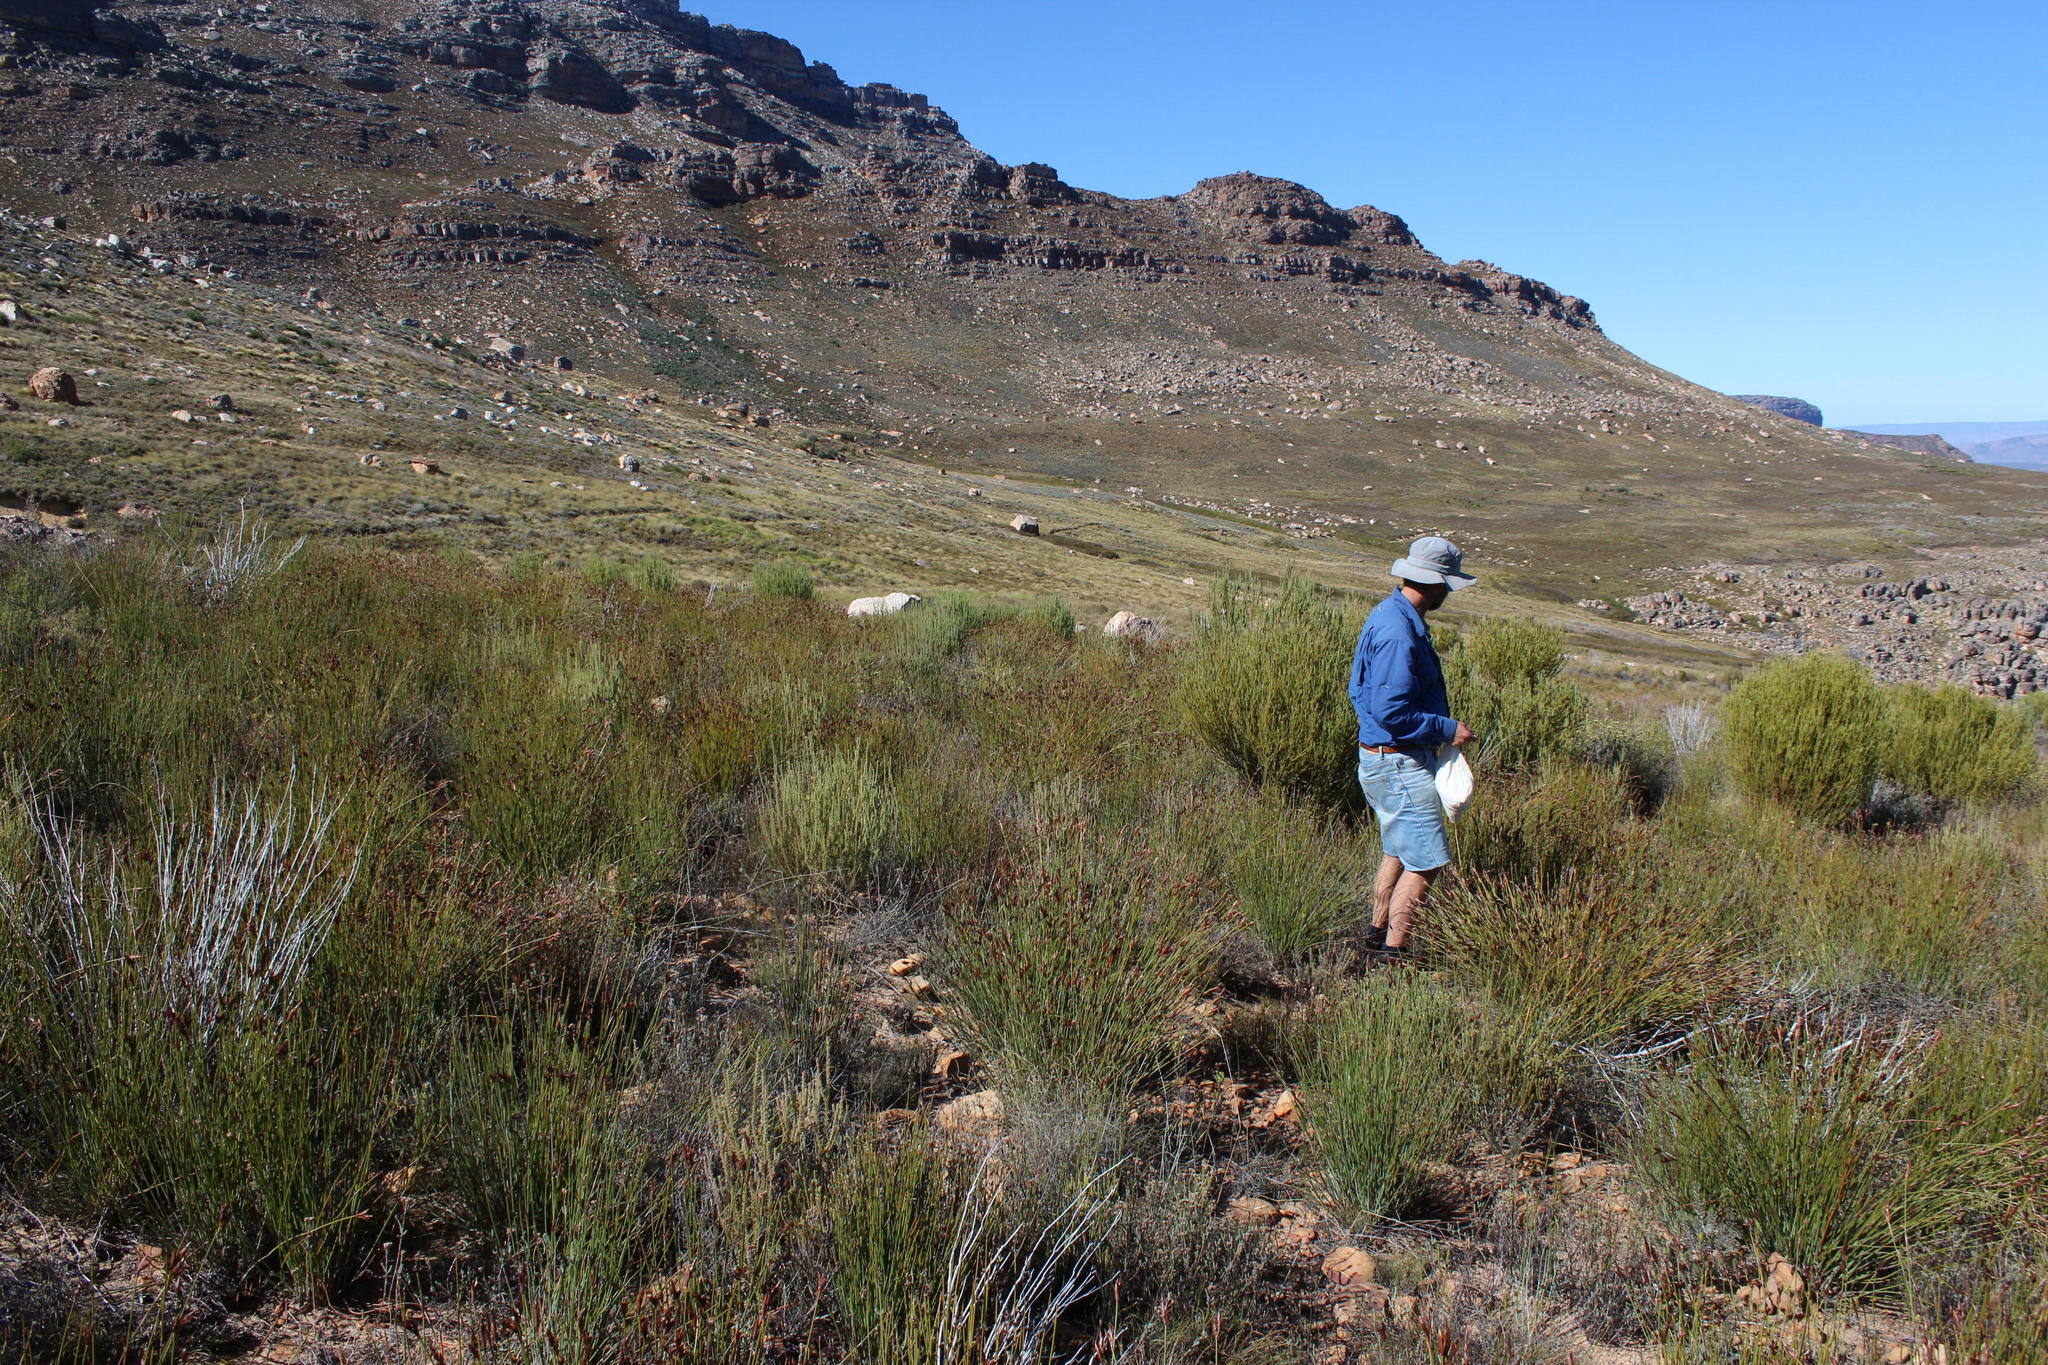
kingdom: Plantae
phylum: Tracheophyta
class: Magnoliopsida
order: Proteales
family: Proteaceae
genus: Leucadendron
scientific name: Leucadendron dubium
